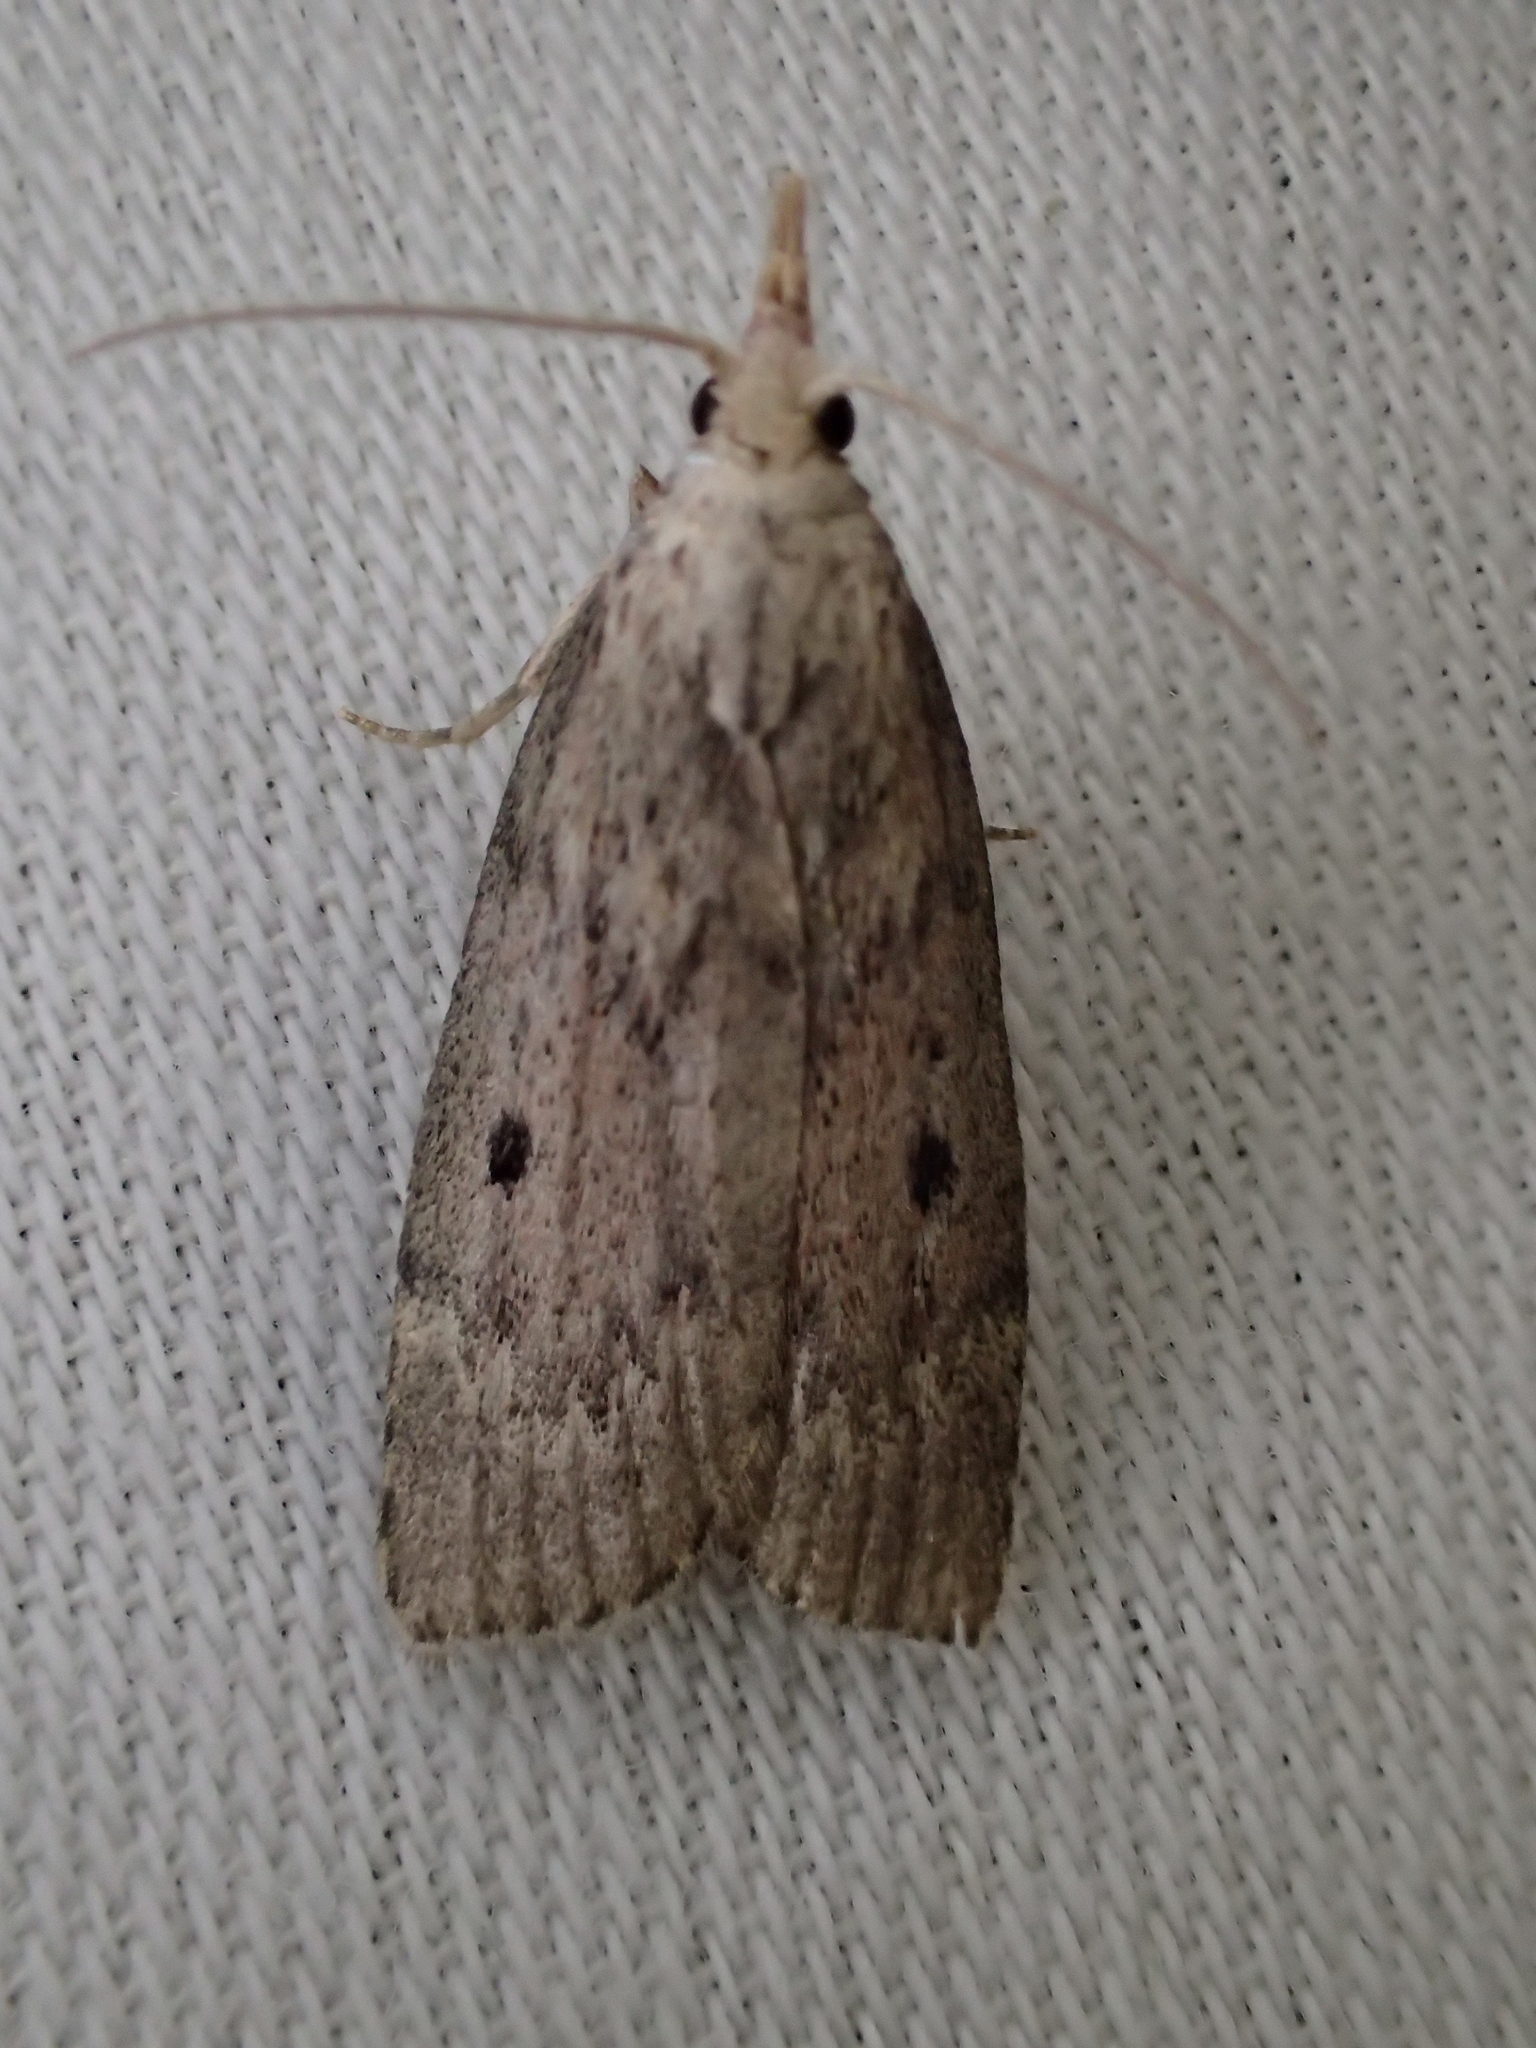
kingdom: Animalia
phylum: Arthropoda
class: Insecta
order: Lepidoptera
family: Pyralidae
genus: Aphomia
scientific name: Aphomia sociella
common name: Bee moth
